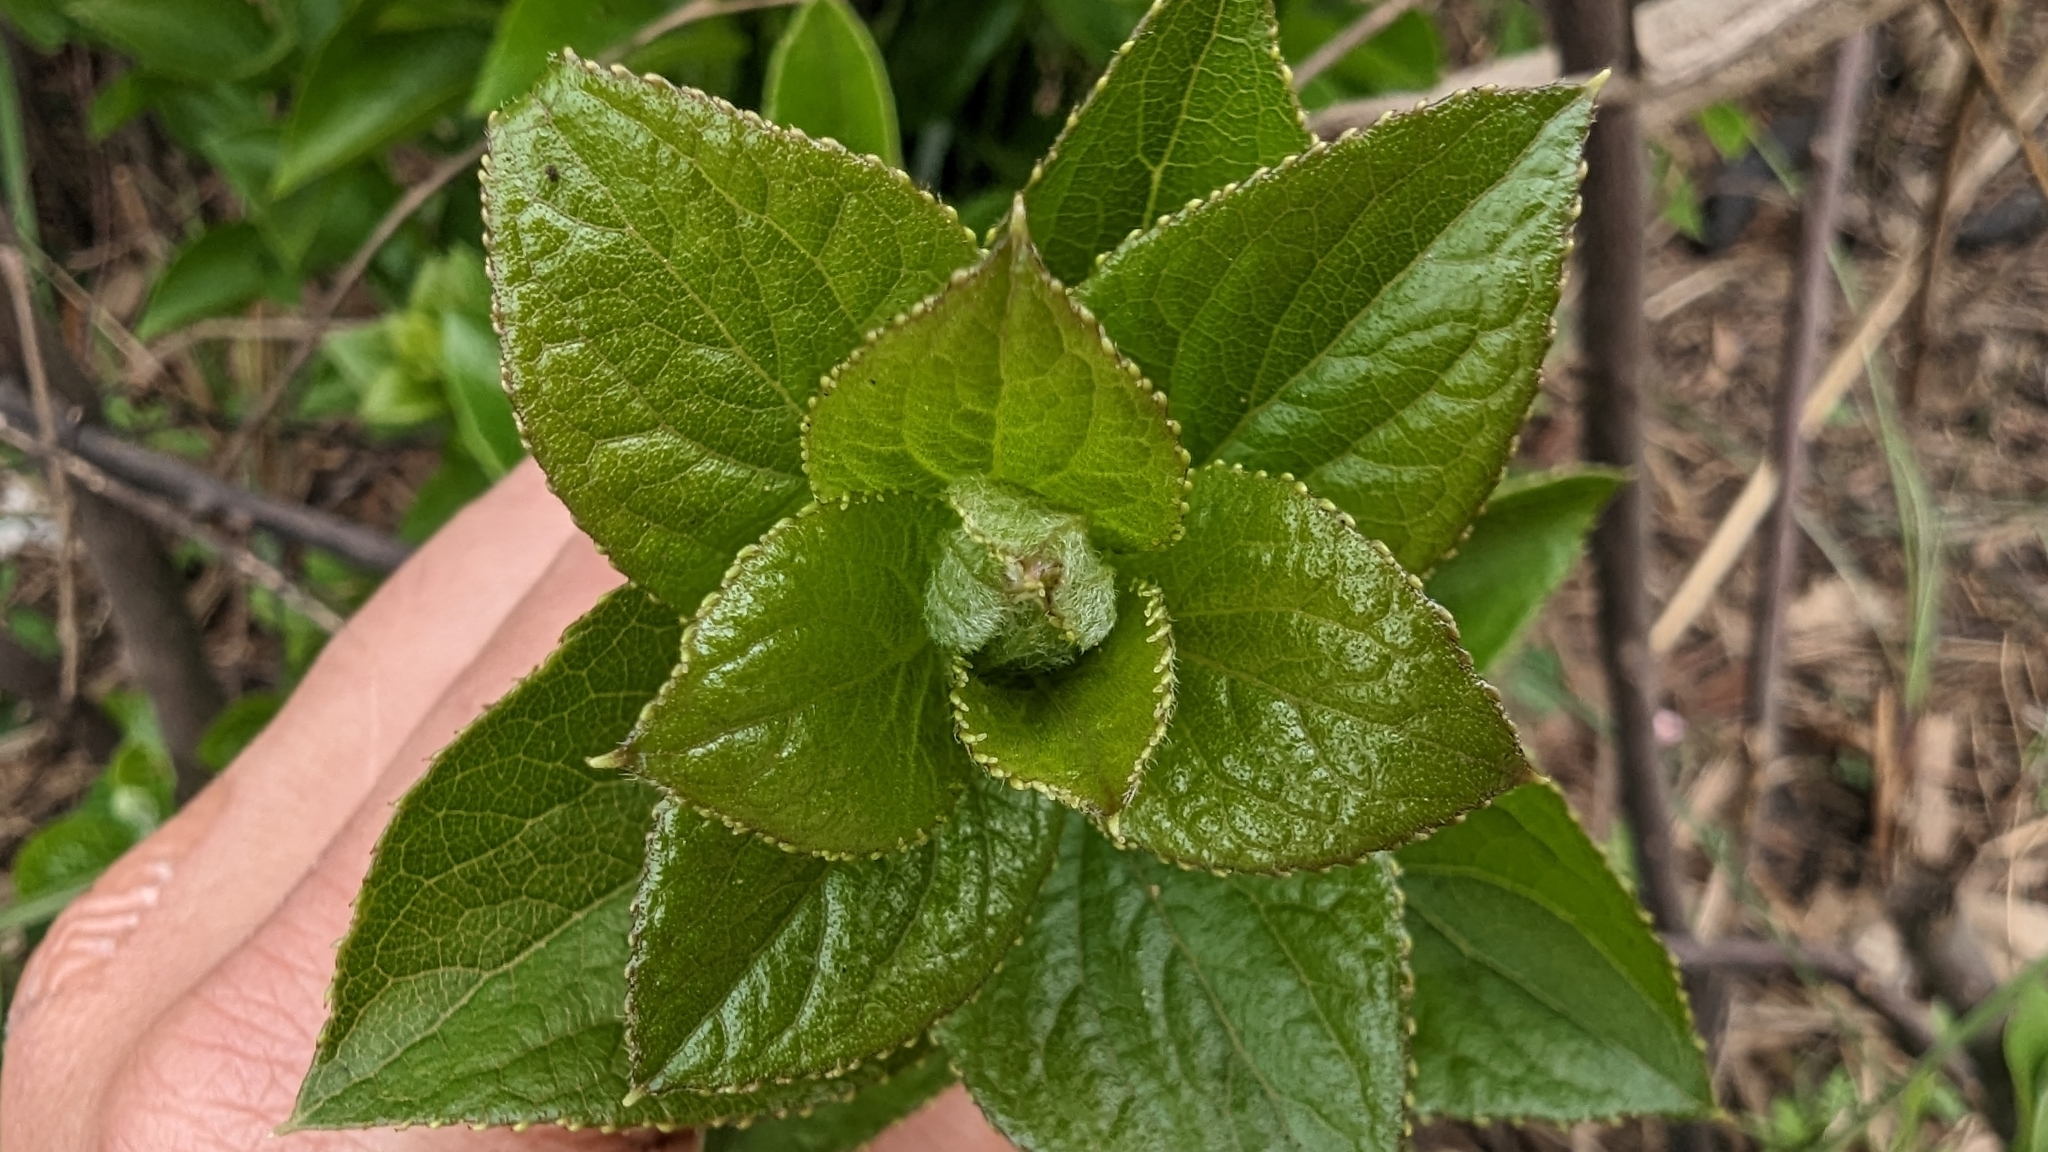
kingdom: Plantae
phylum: Tracheophyta
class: Magnoliopsida
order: Ericales
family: Symplocaceae
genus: Symplocos
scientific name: Symplocos paniculata
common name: Sapphire-berry
